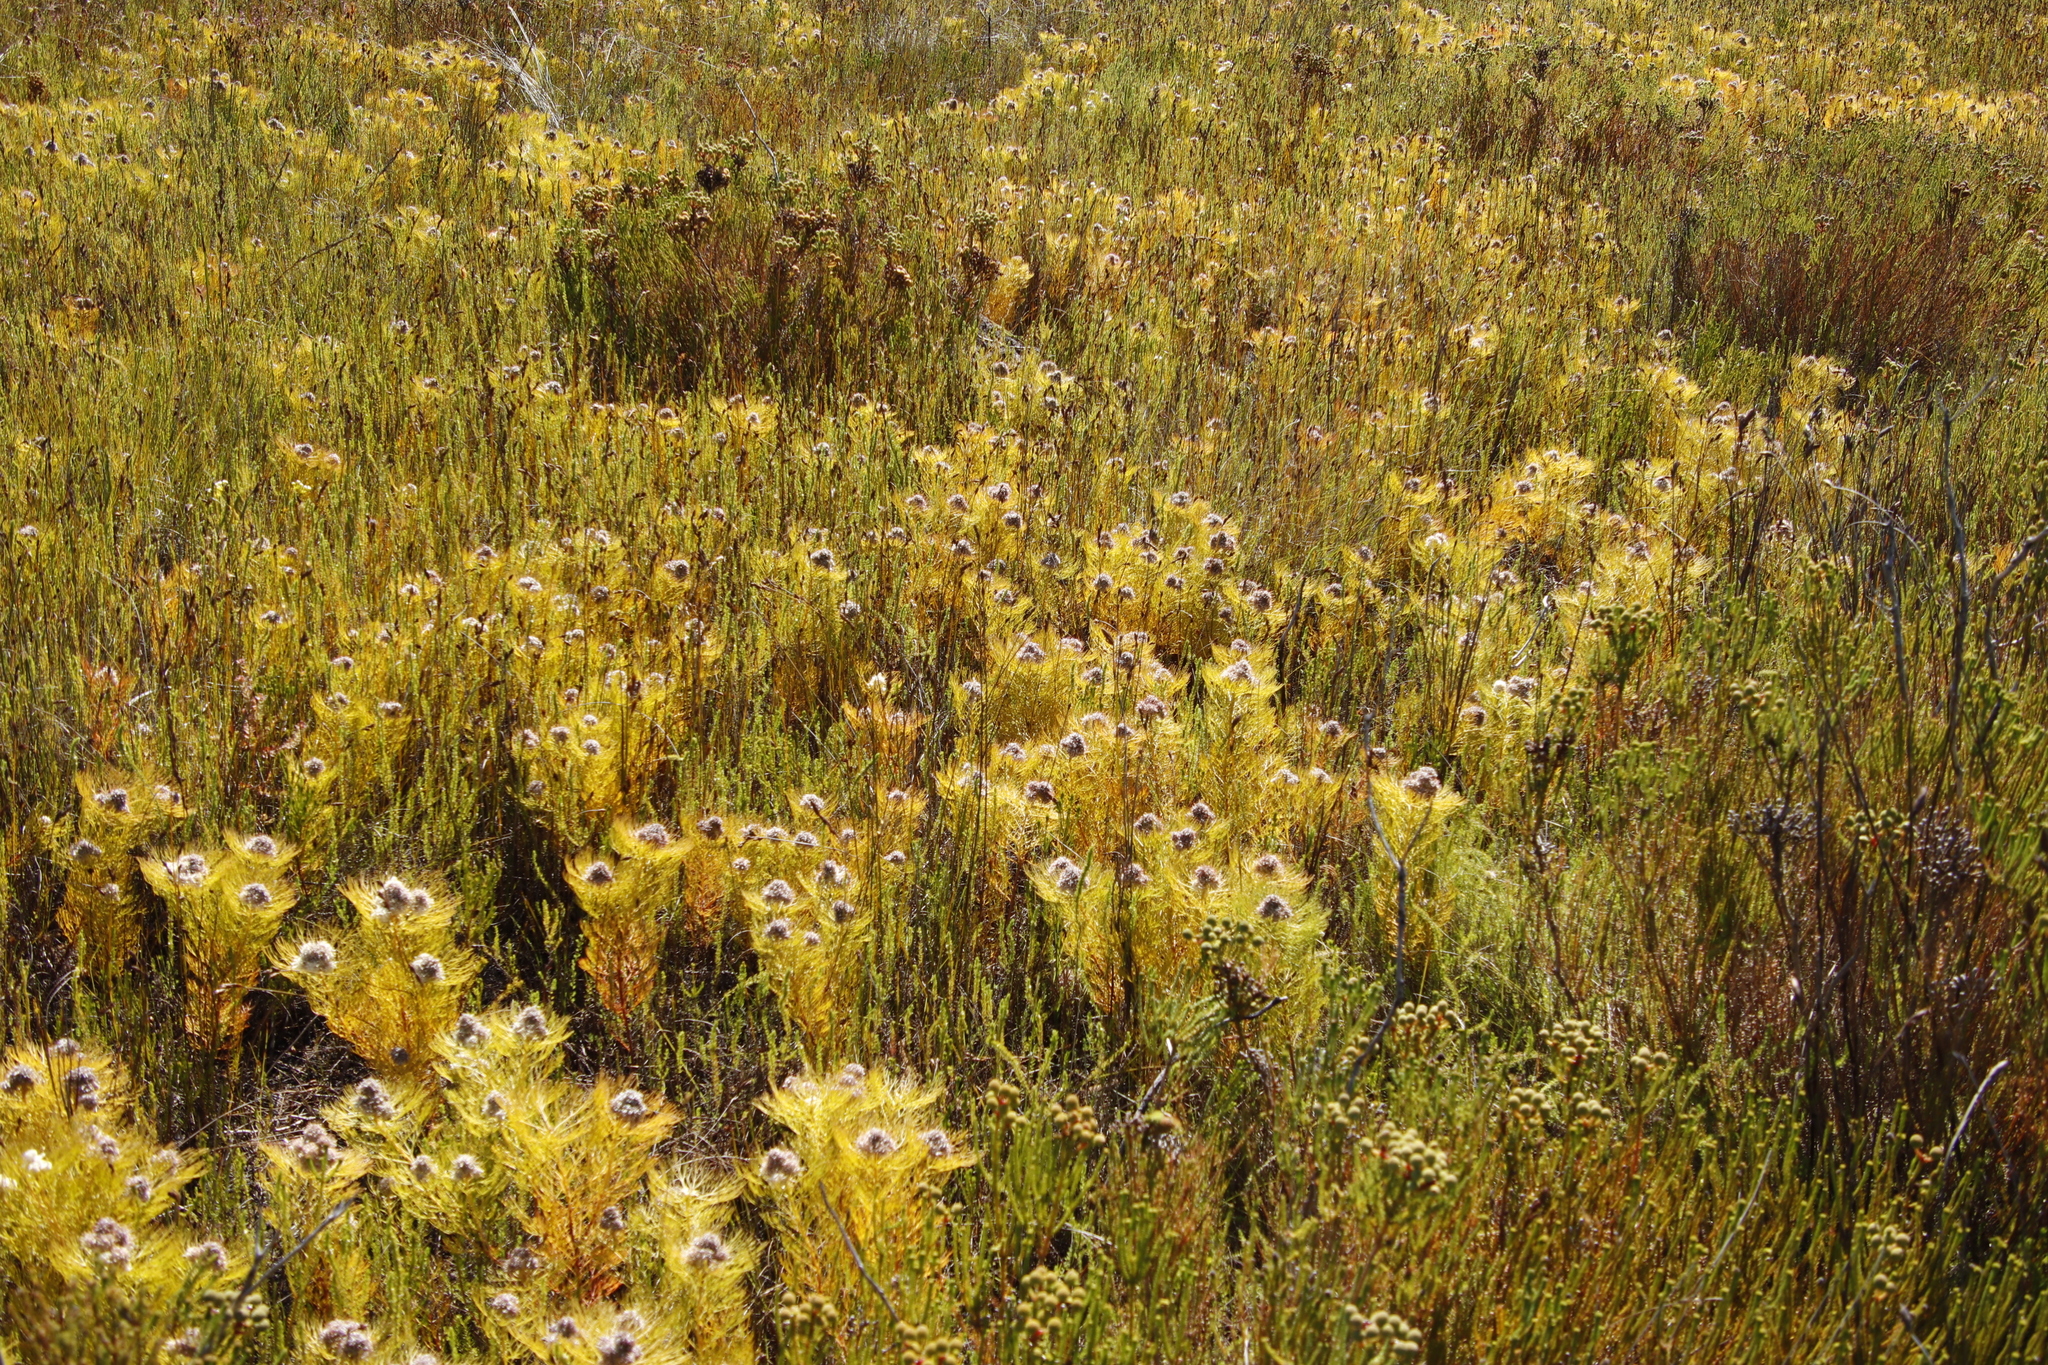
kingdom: Plantae
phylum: Tracheophyta
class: Magnoliopsida
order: Proteales
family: Proteaceae
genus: Serruria
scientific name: Serruria glomerata
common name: Cluster spiderhead
